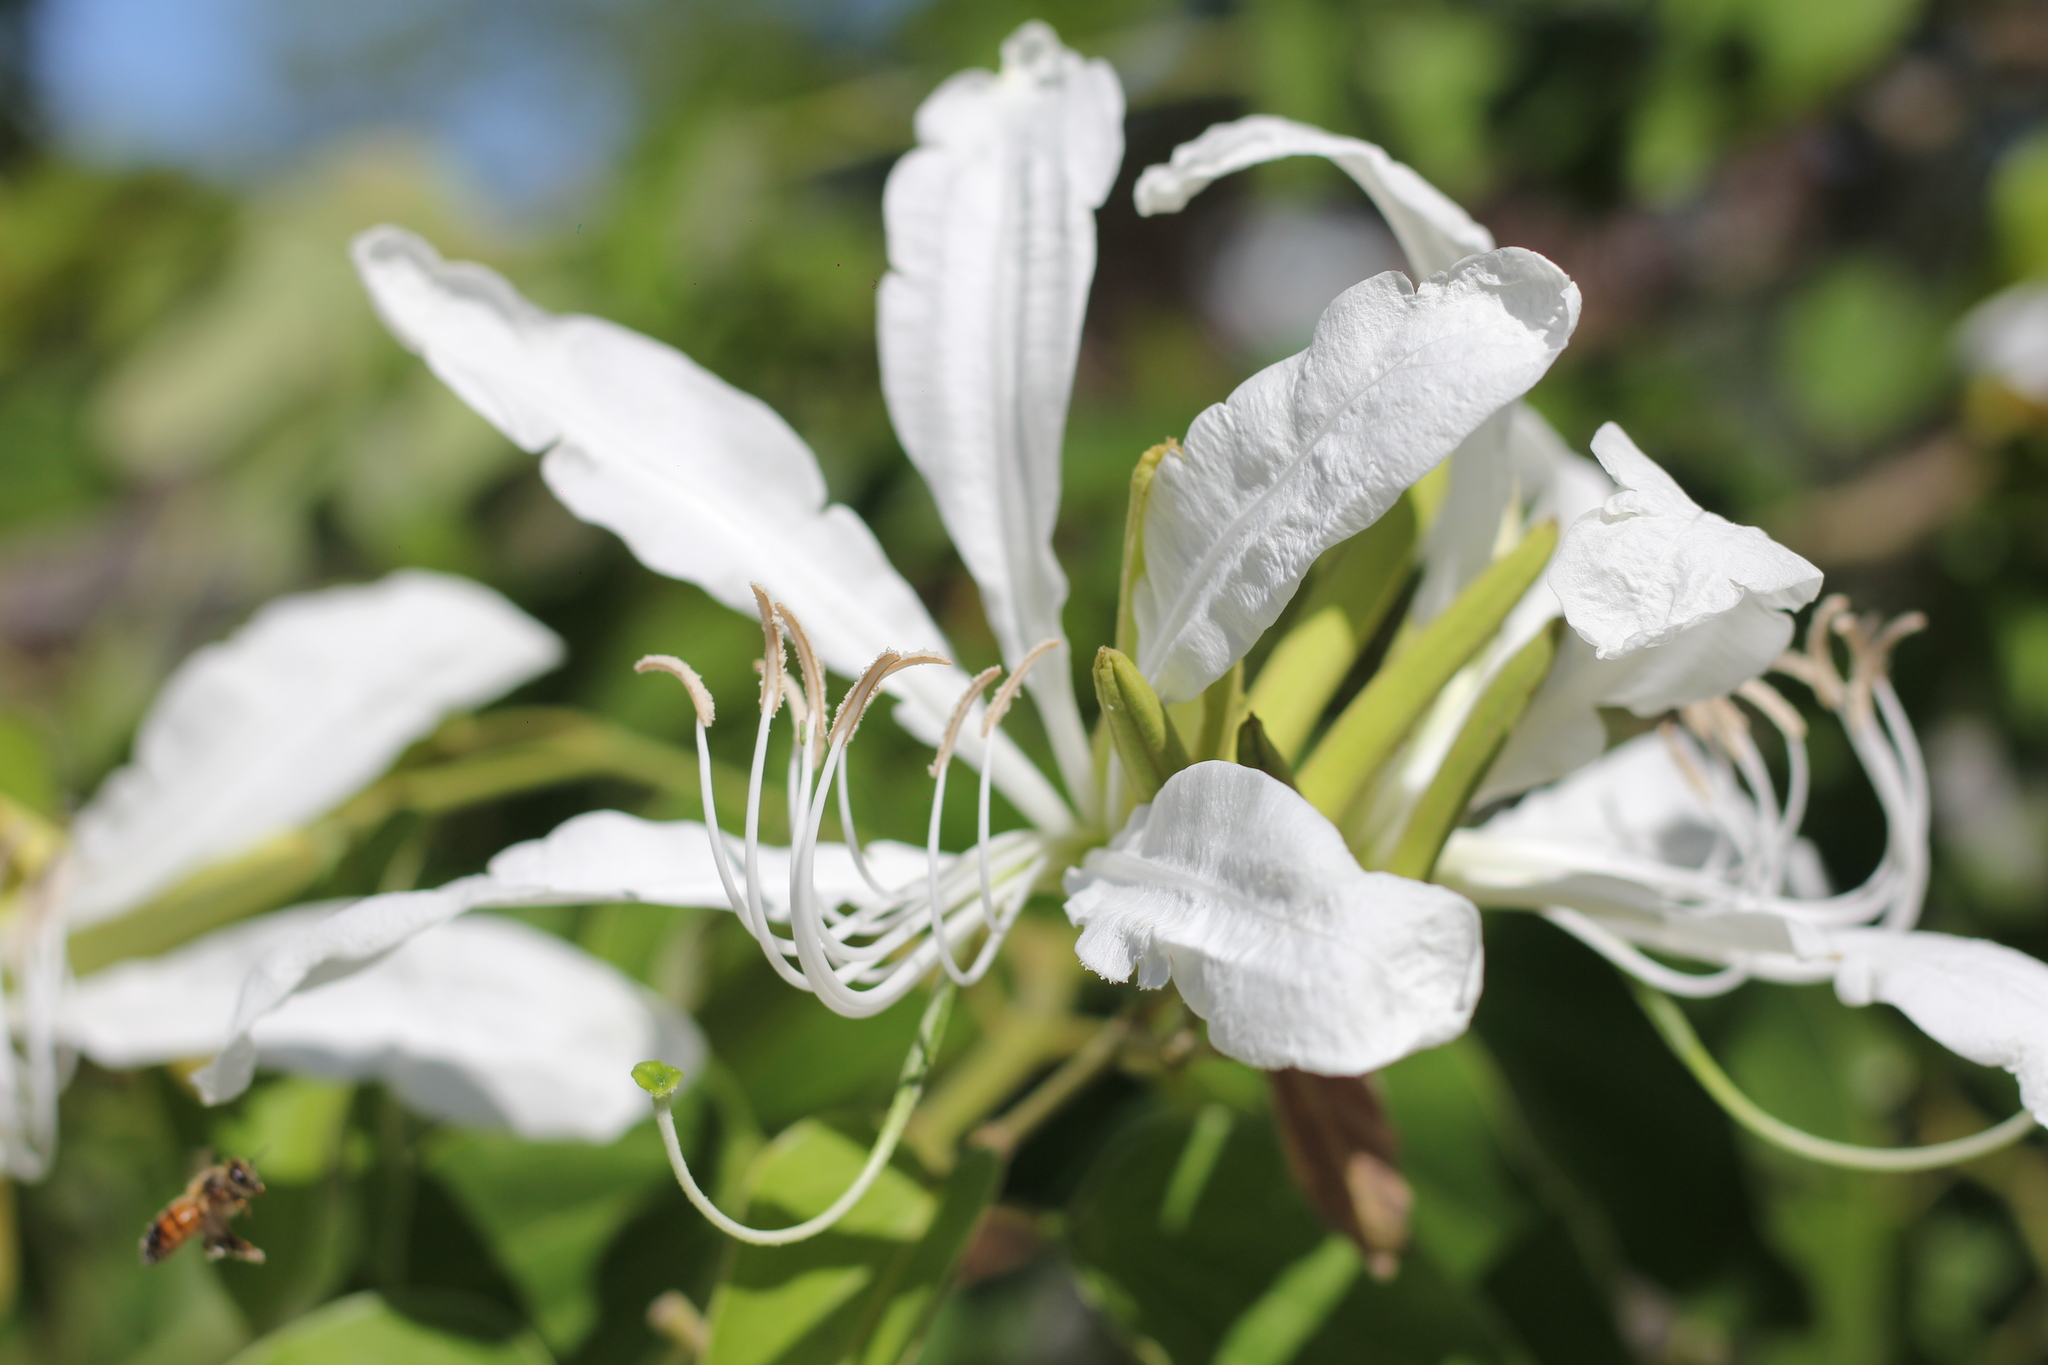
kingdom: Plantae
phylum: Tracheophyta
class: Magnoliopsida
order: Fabales
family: Fabaceae
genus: Bauhinia
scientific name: Bauhinia forficata
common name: Orchid tree
